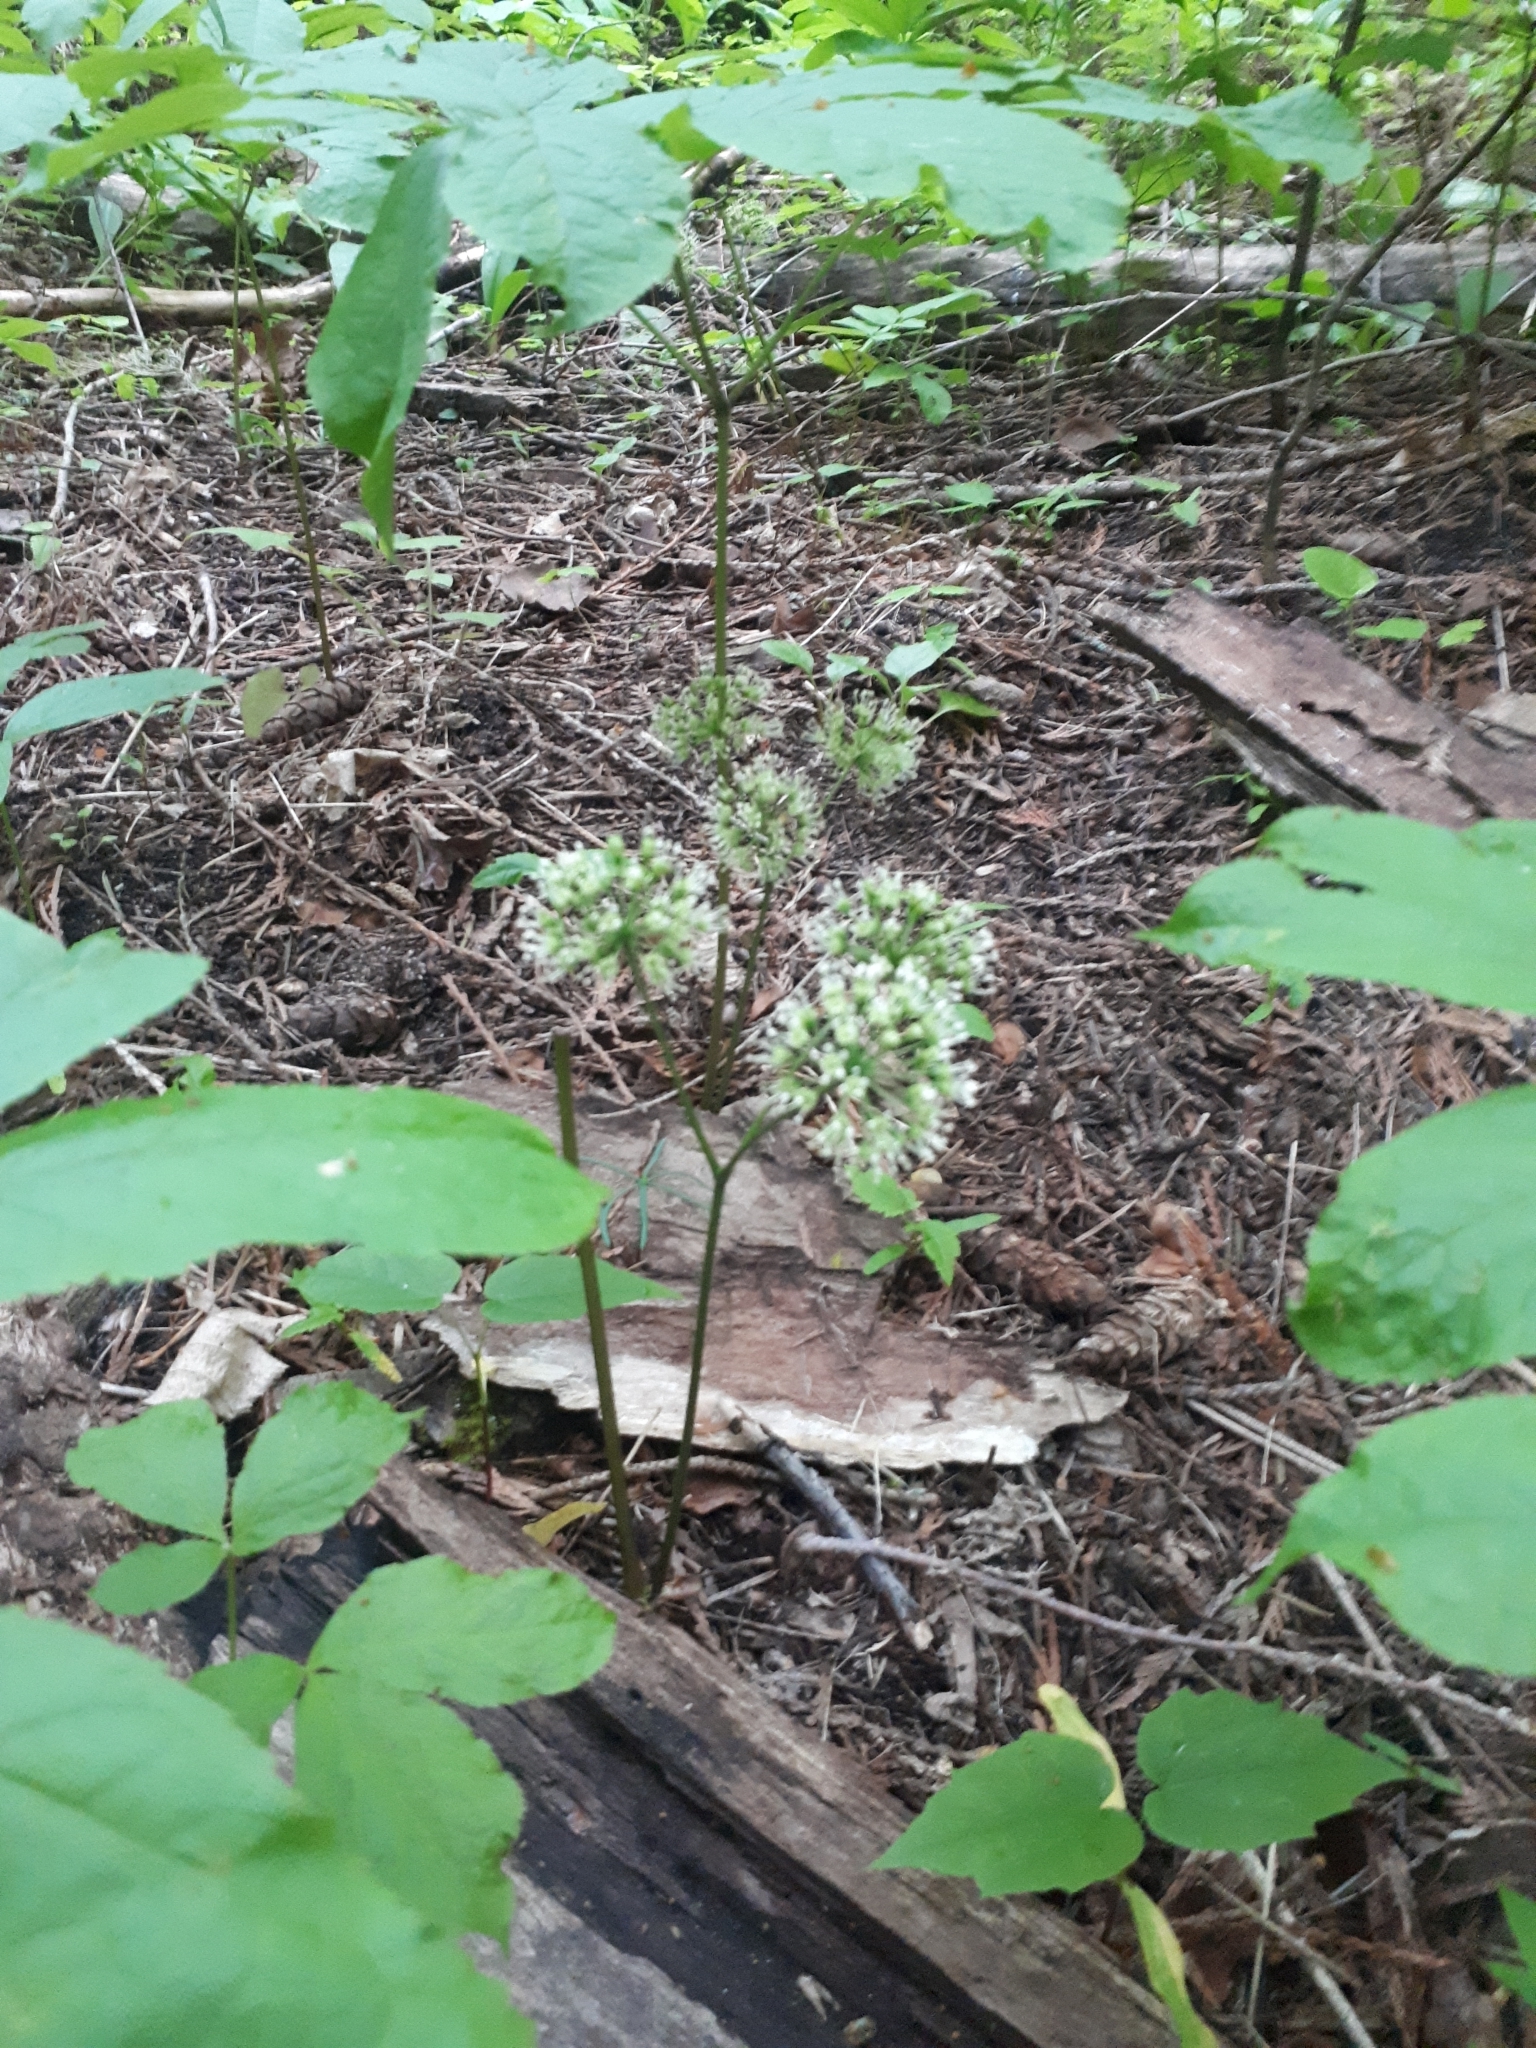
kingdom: Plantae
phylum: Tracheophyta
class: Magnoliopsida
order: Apiales
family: Araliaceae
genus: Aralia
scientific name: Aralia nudicaulis
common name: Wild sarsaparilla
